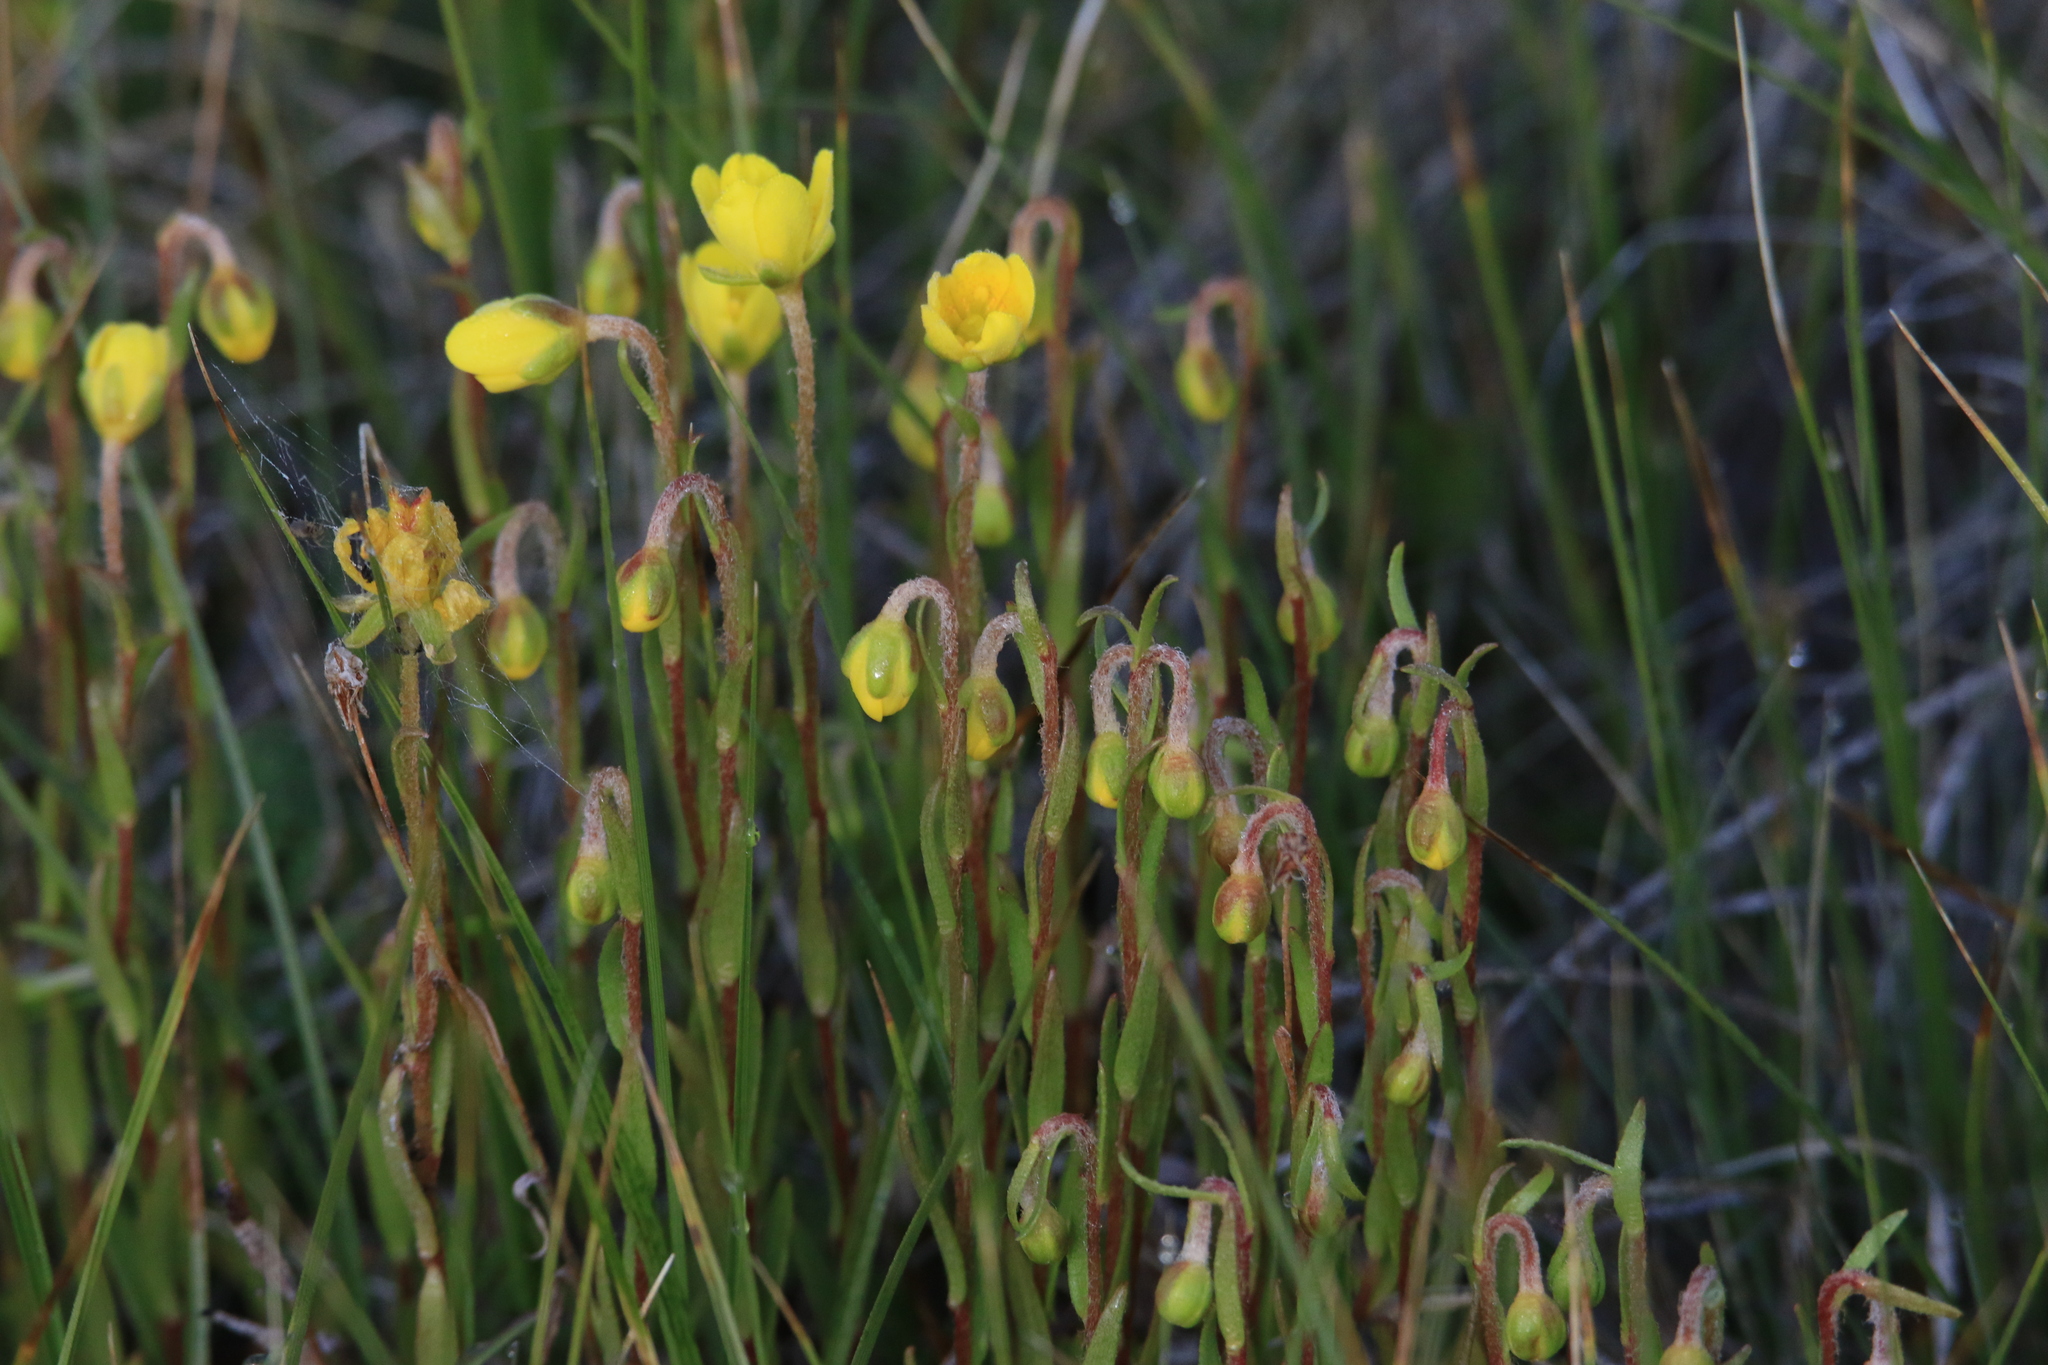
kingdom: Plantae
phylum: Tracheophyta
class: Magnoliopsida
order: Saxifragales
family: Saxifragaceae
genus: Saxifraga
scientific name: Saxifraga hirculus
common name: Yellow marsh saxifrage
